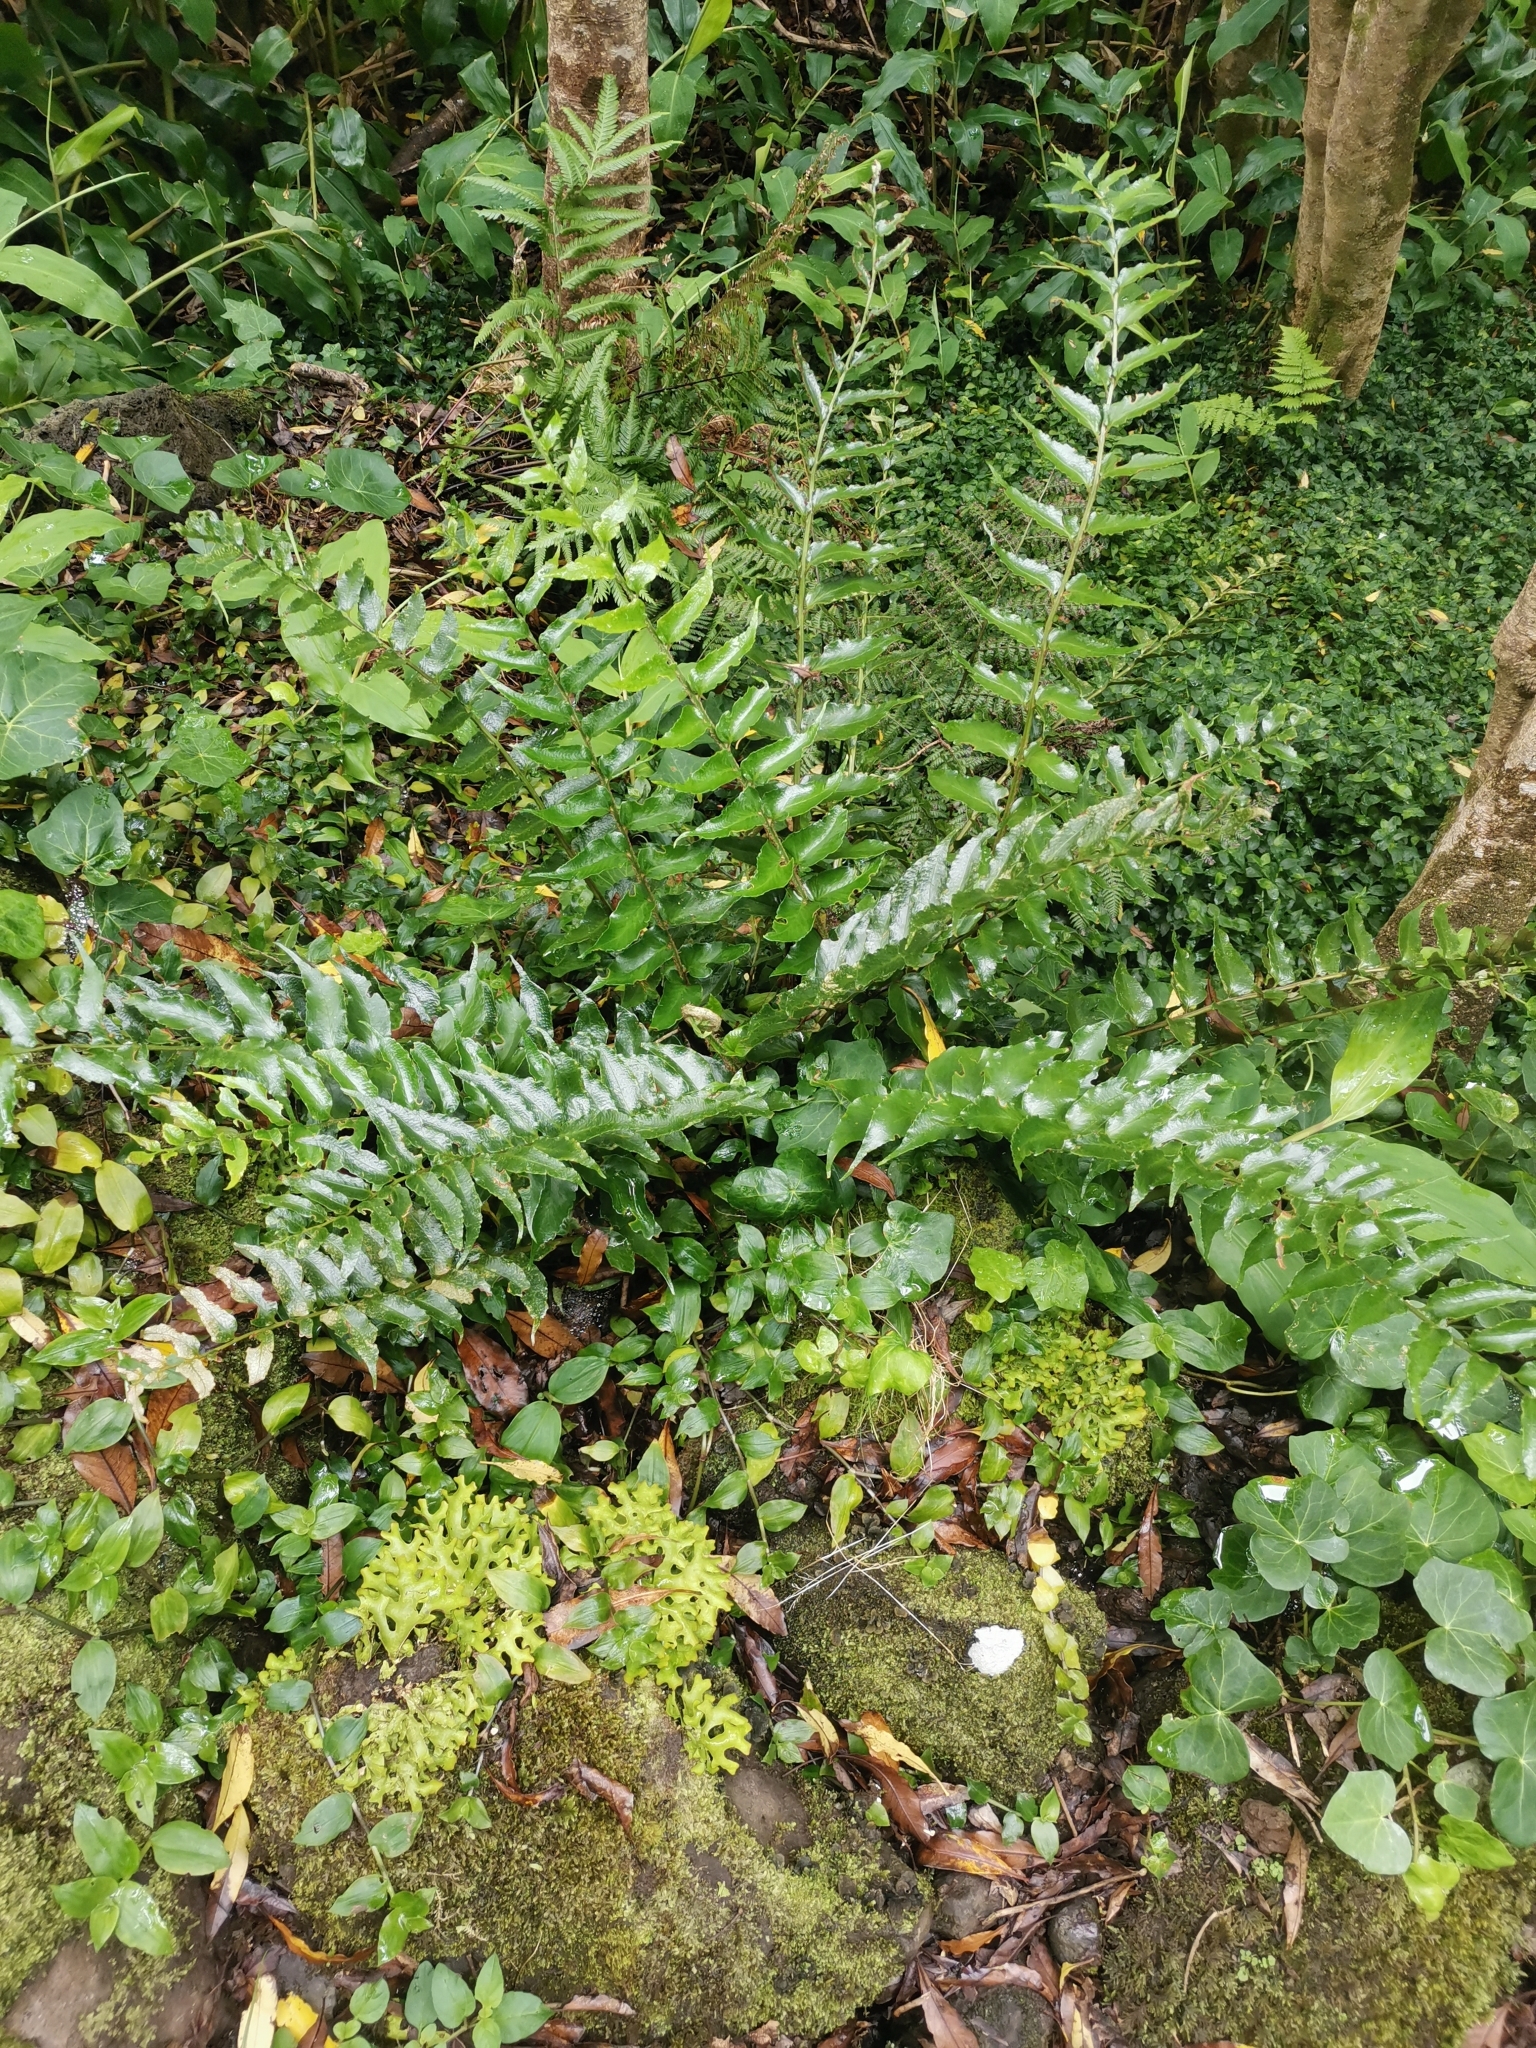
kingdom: Plantae
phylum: Tracheophyta
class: Polypodiopsida
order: Polypodiales
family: Dryopteridaceae
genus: Cyrtomium
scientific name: Cyrtomium falcatum
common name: House holly-fern
